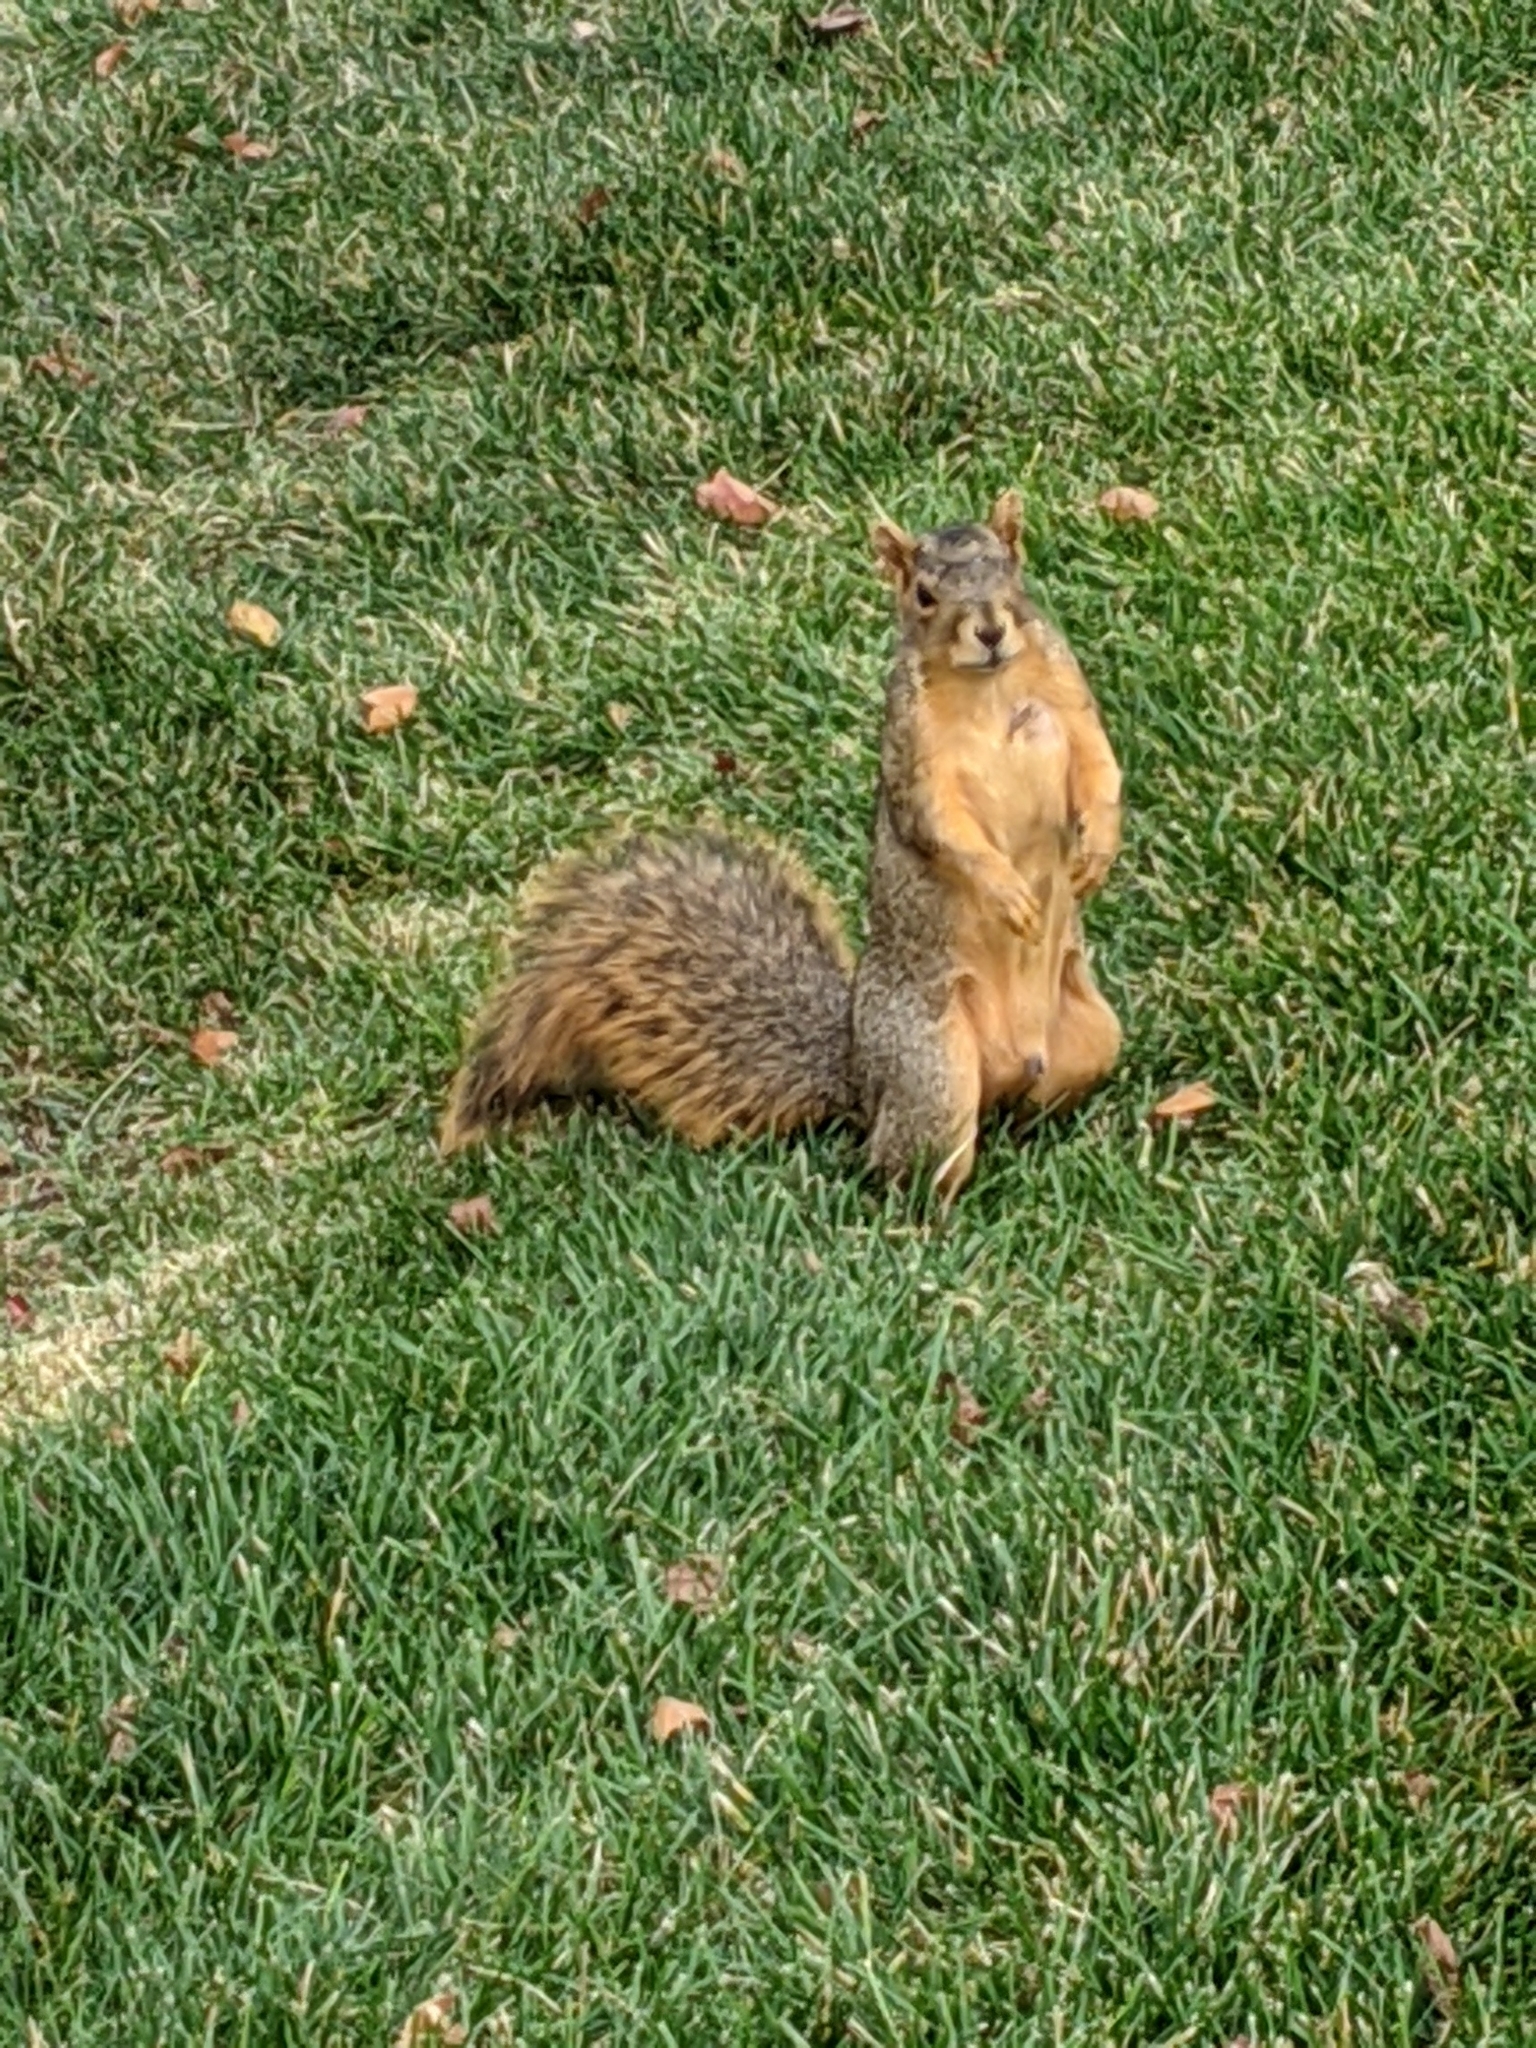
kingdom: Animalia
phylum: Chordata
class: Mammalia
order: Rodentia
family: Sciuridae
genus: Sciurus
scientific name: Sciurus niger
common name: Fox squirrel
